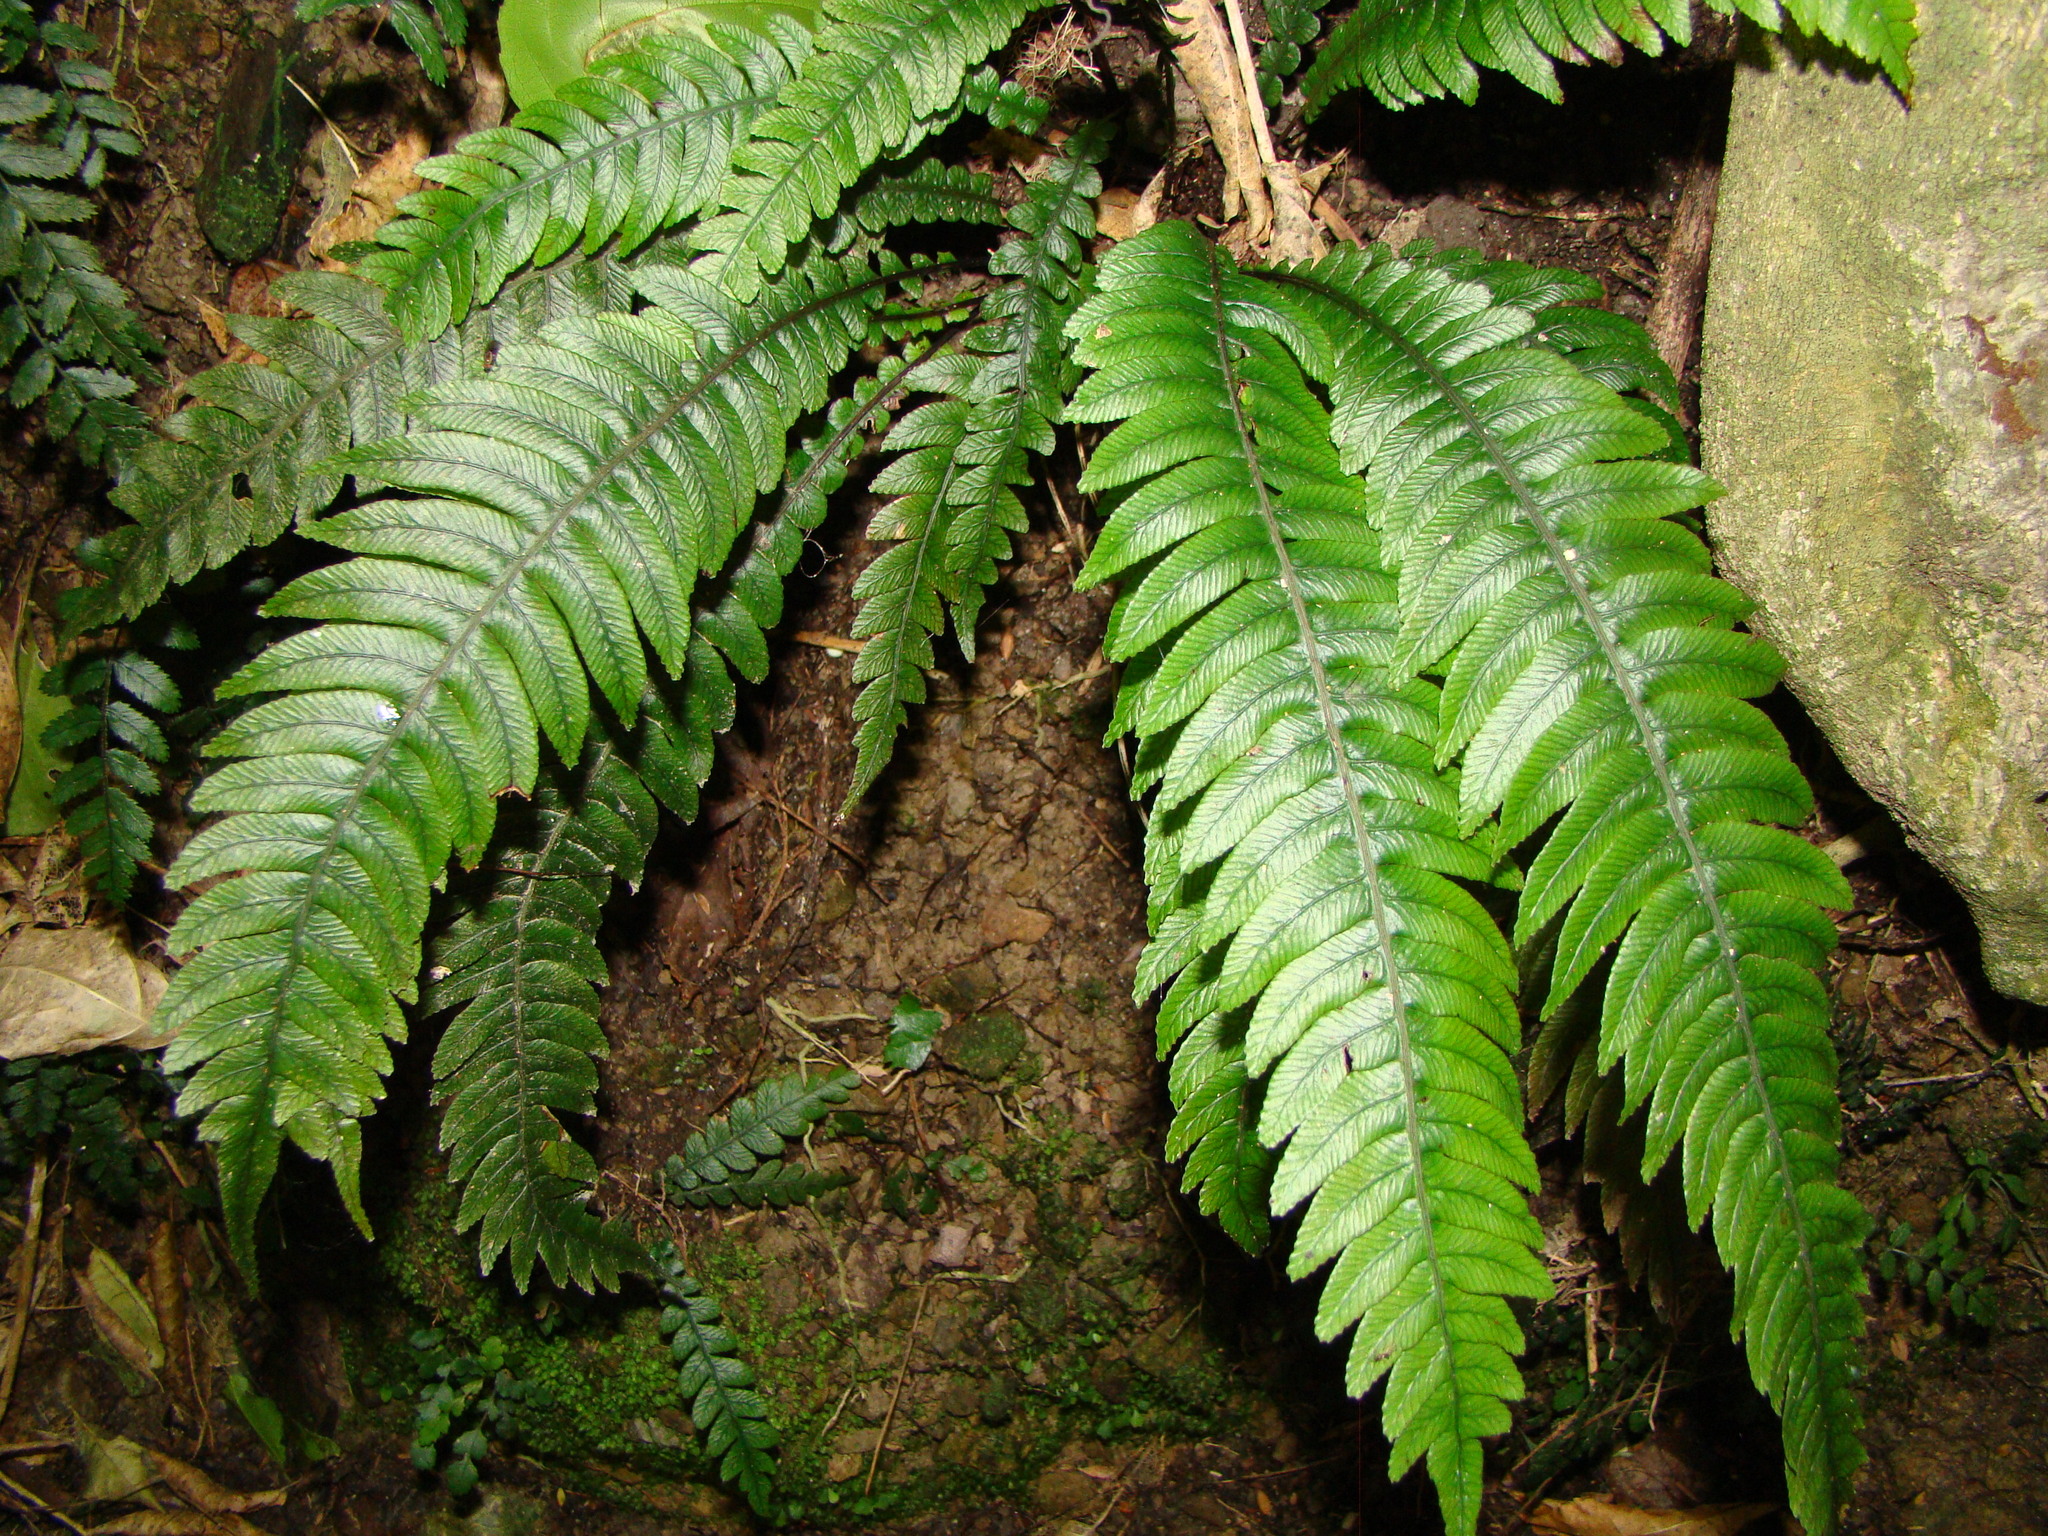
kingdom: Plantae
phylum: Tracheophyta
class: Polypodiopsida
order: Polypodiales
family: Blechnaceae
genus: Austroblechnum
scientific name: Austroblechnum lanceolatum
